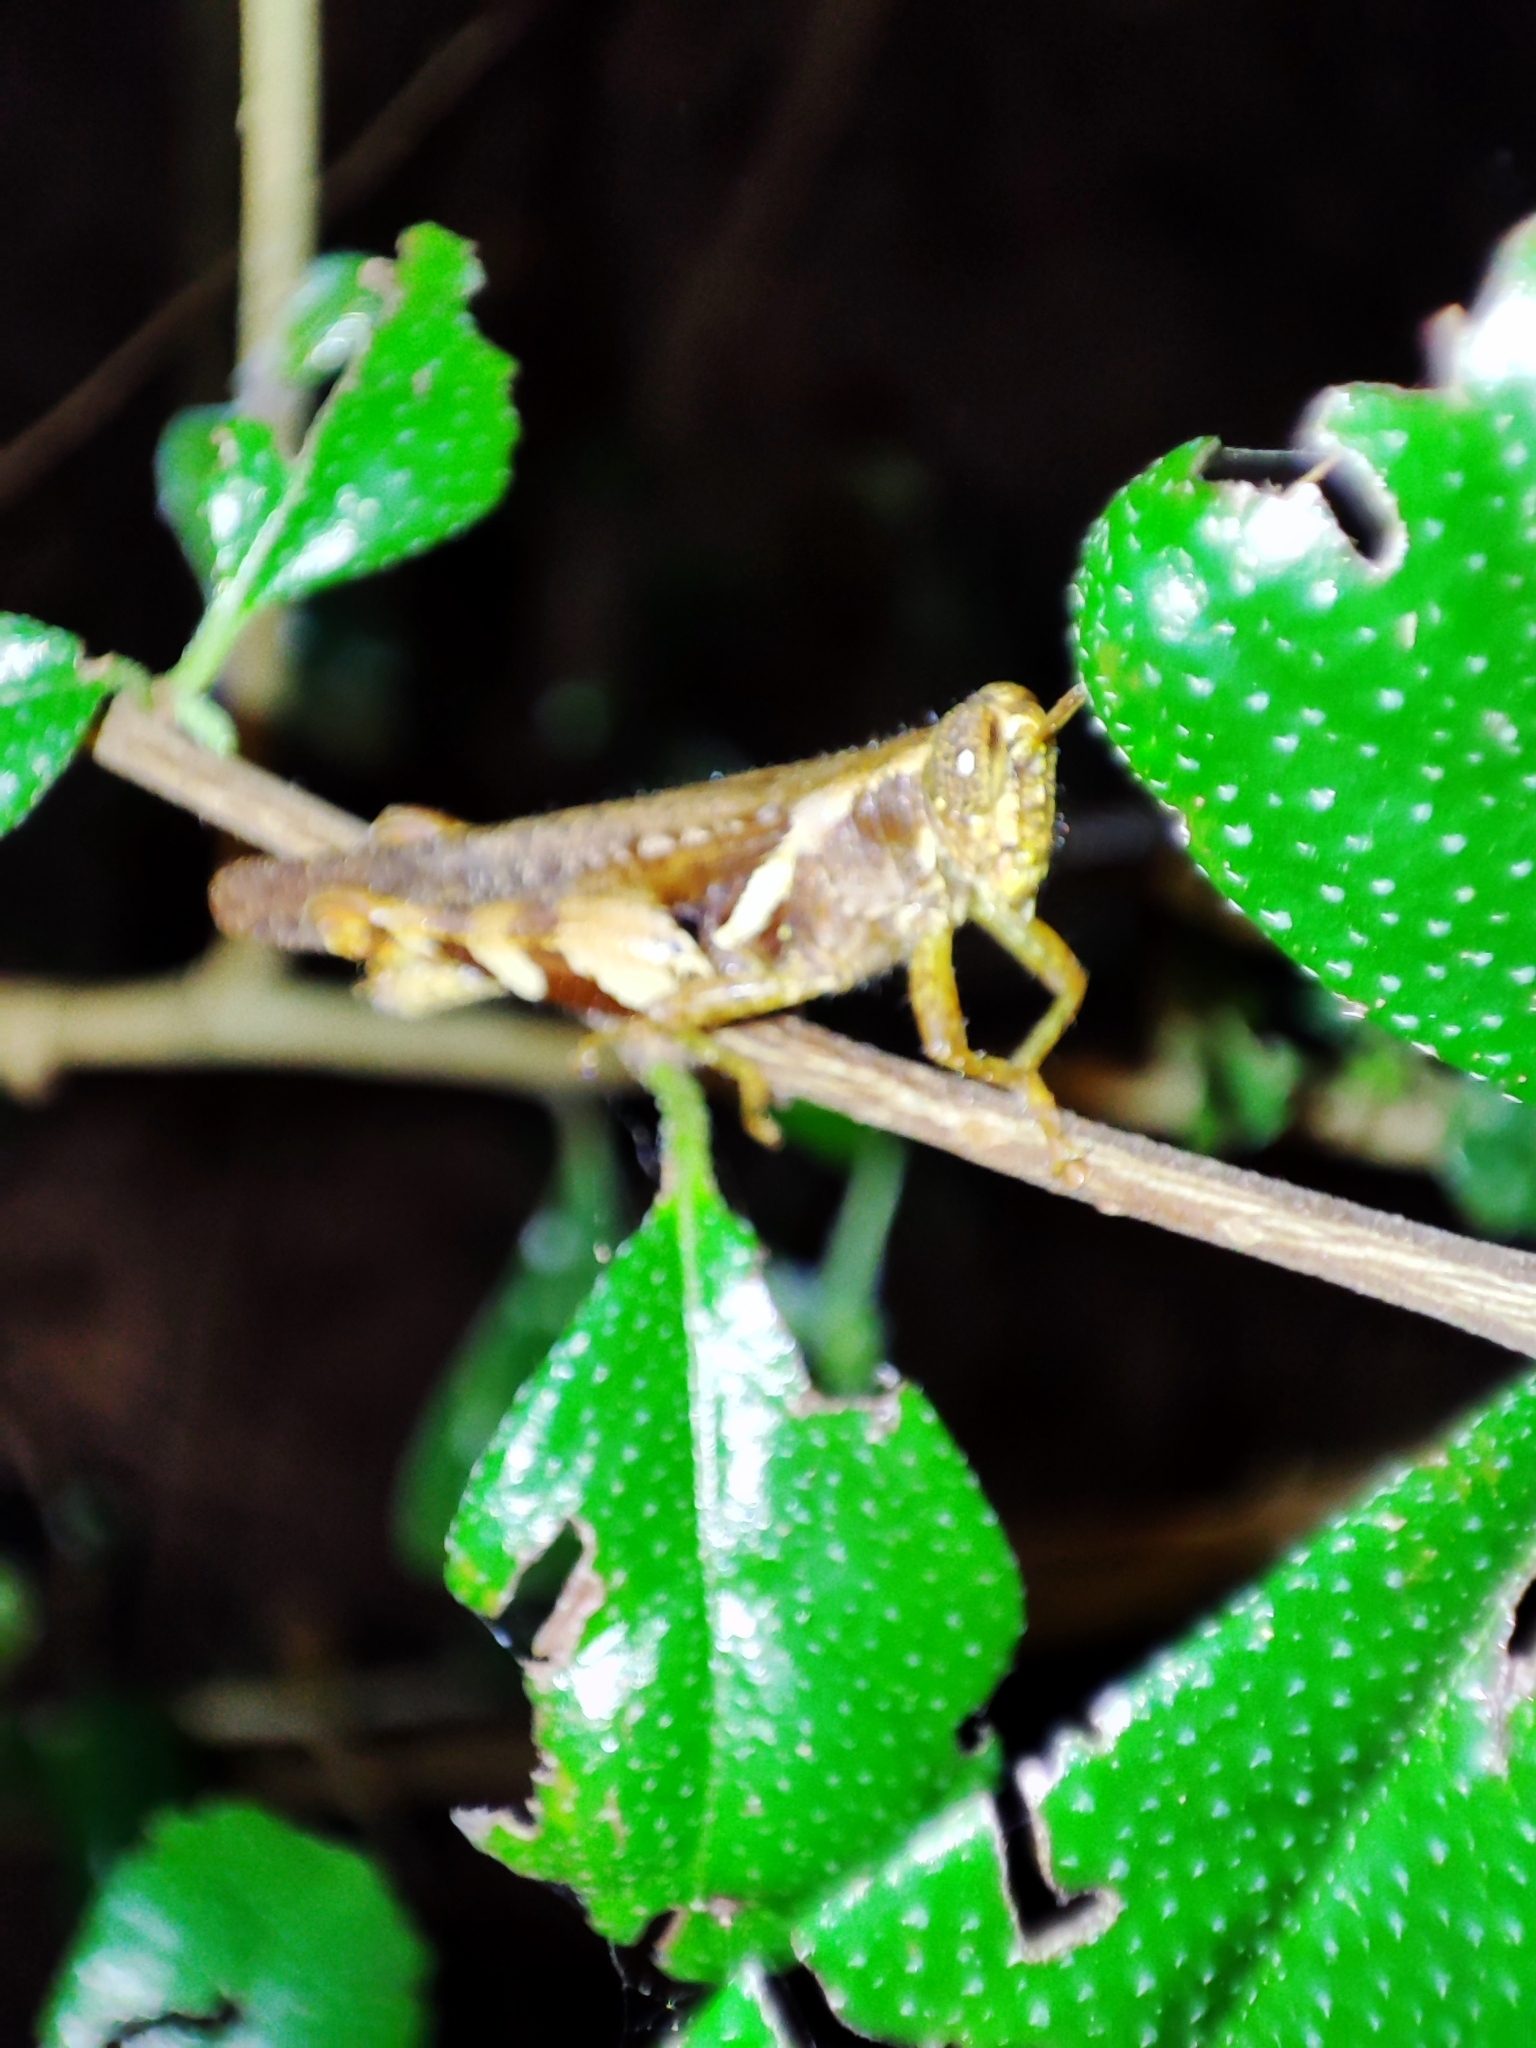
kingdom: Animalia
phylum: Arthropoda
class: Insecta
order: Orthoptera
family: Acrididae
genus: Xenocatantops
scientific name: Xenocatantops humile
